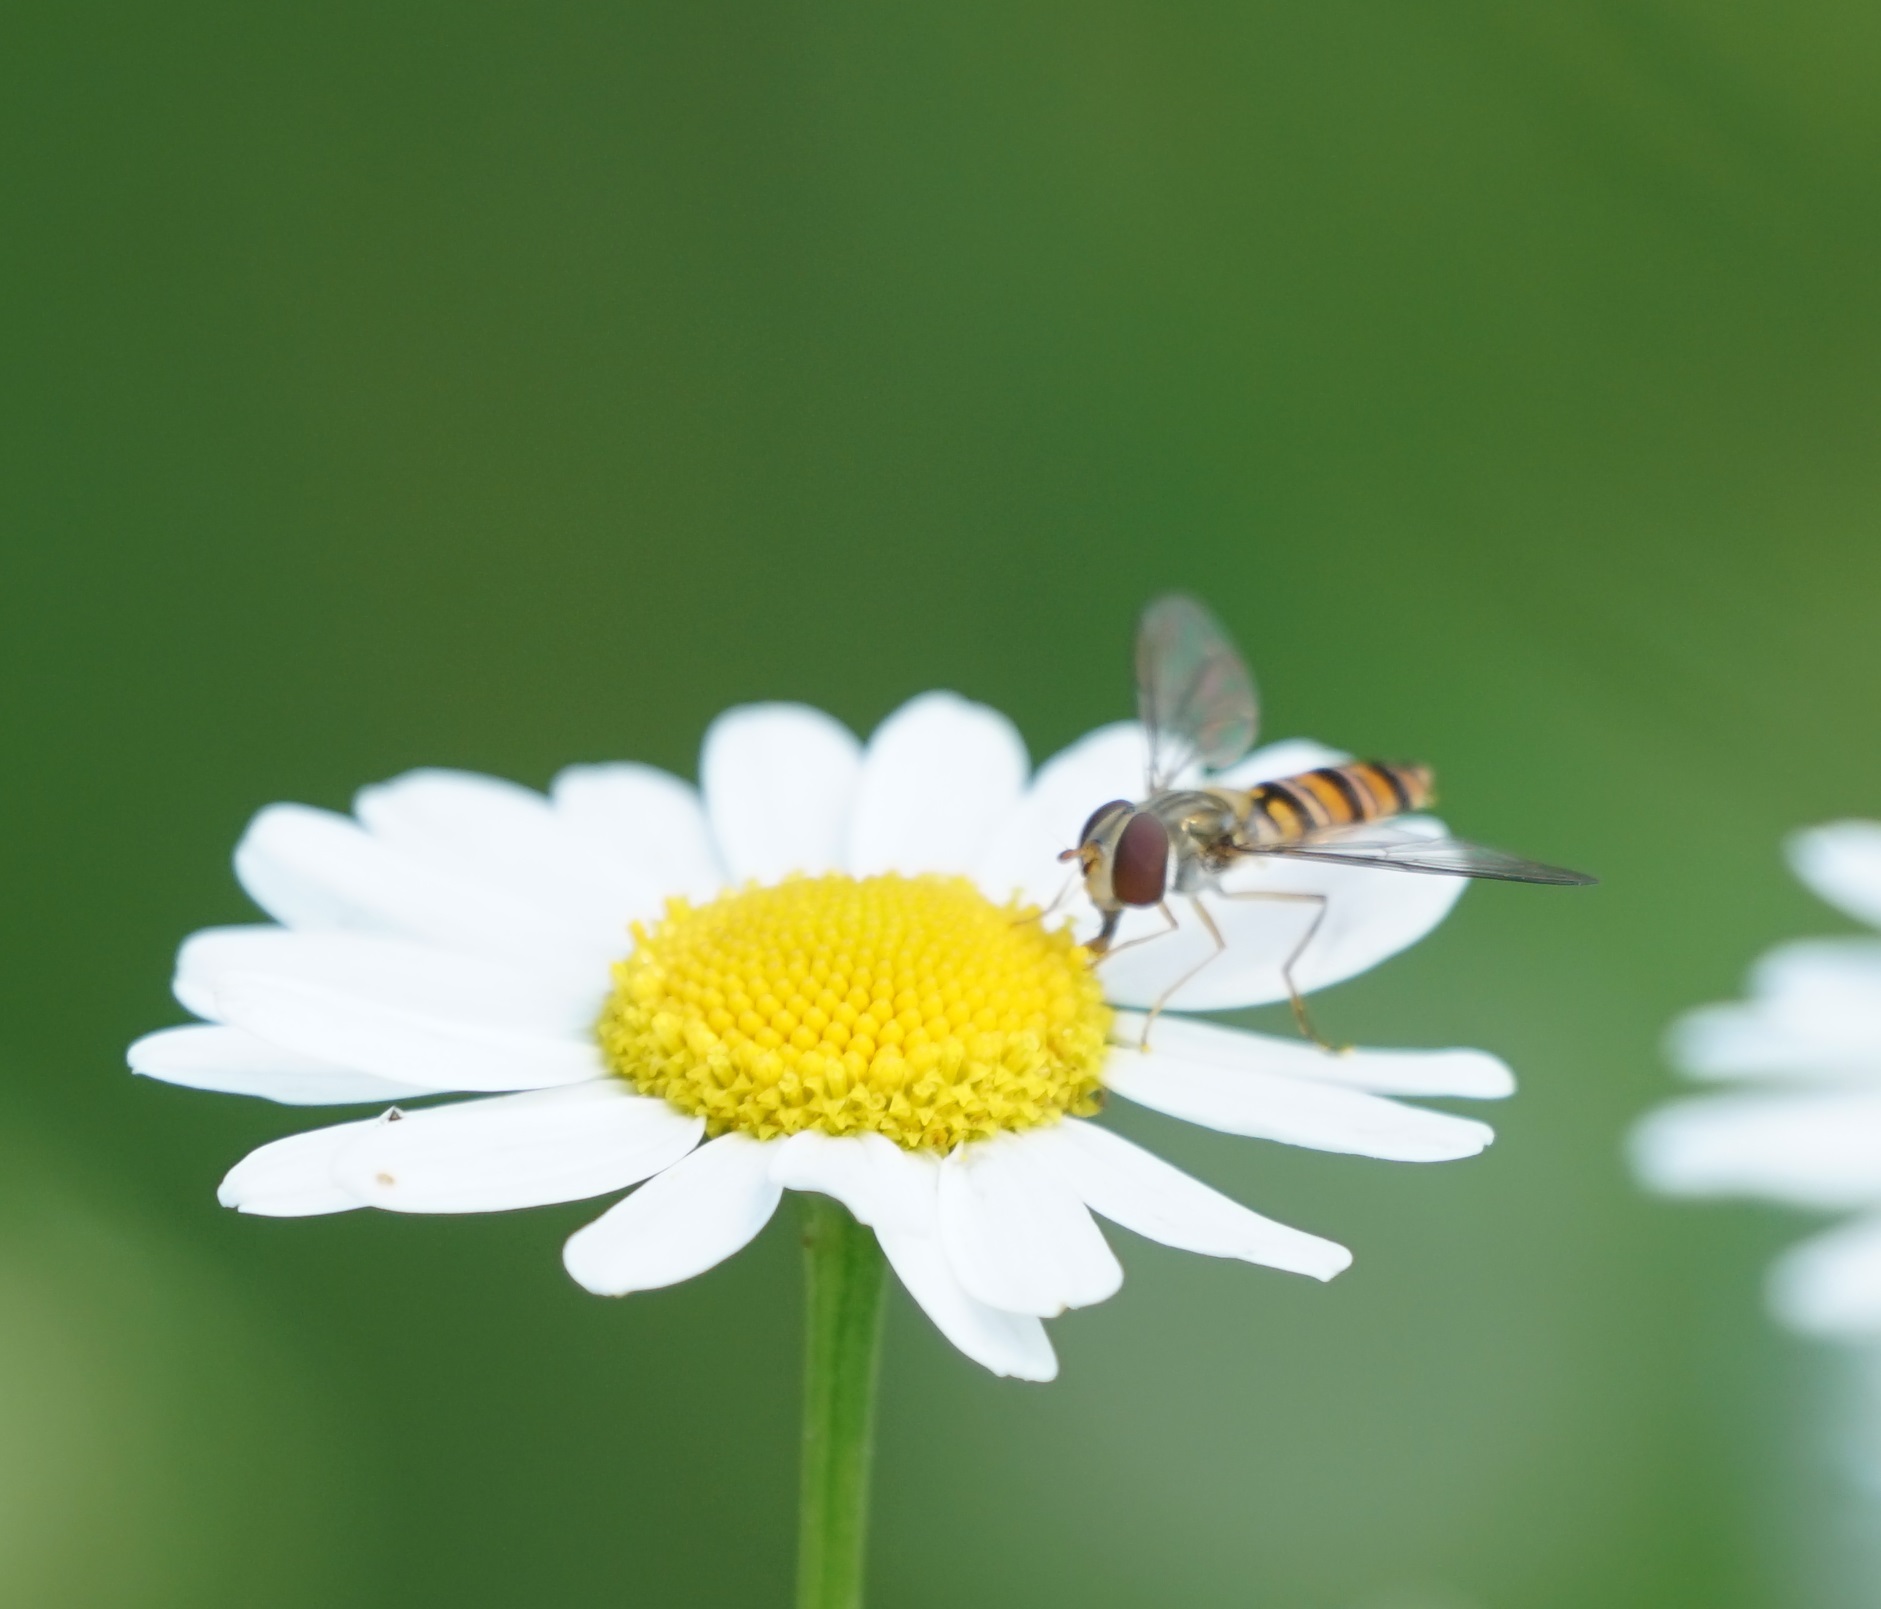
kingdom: Animalia
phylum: Arthropoda
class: Insecta
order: Diptera
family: Syrphidae
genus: Episyrphus
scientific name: Episyrphus balteatus
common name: Marmalade hoverfly
